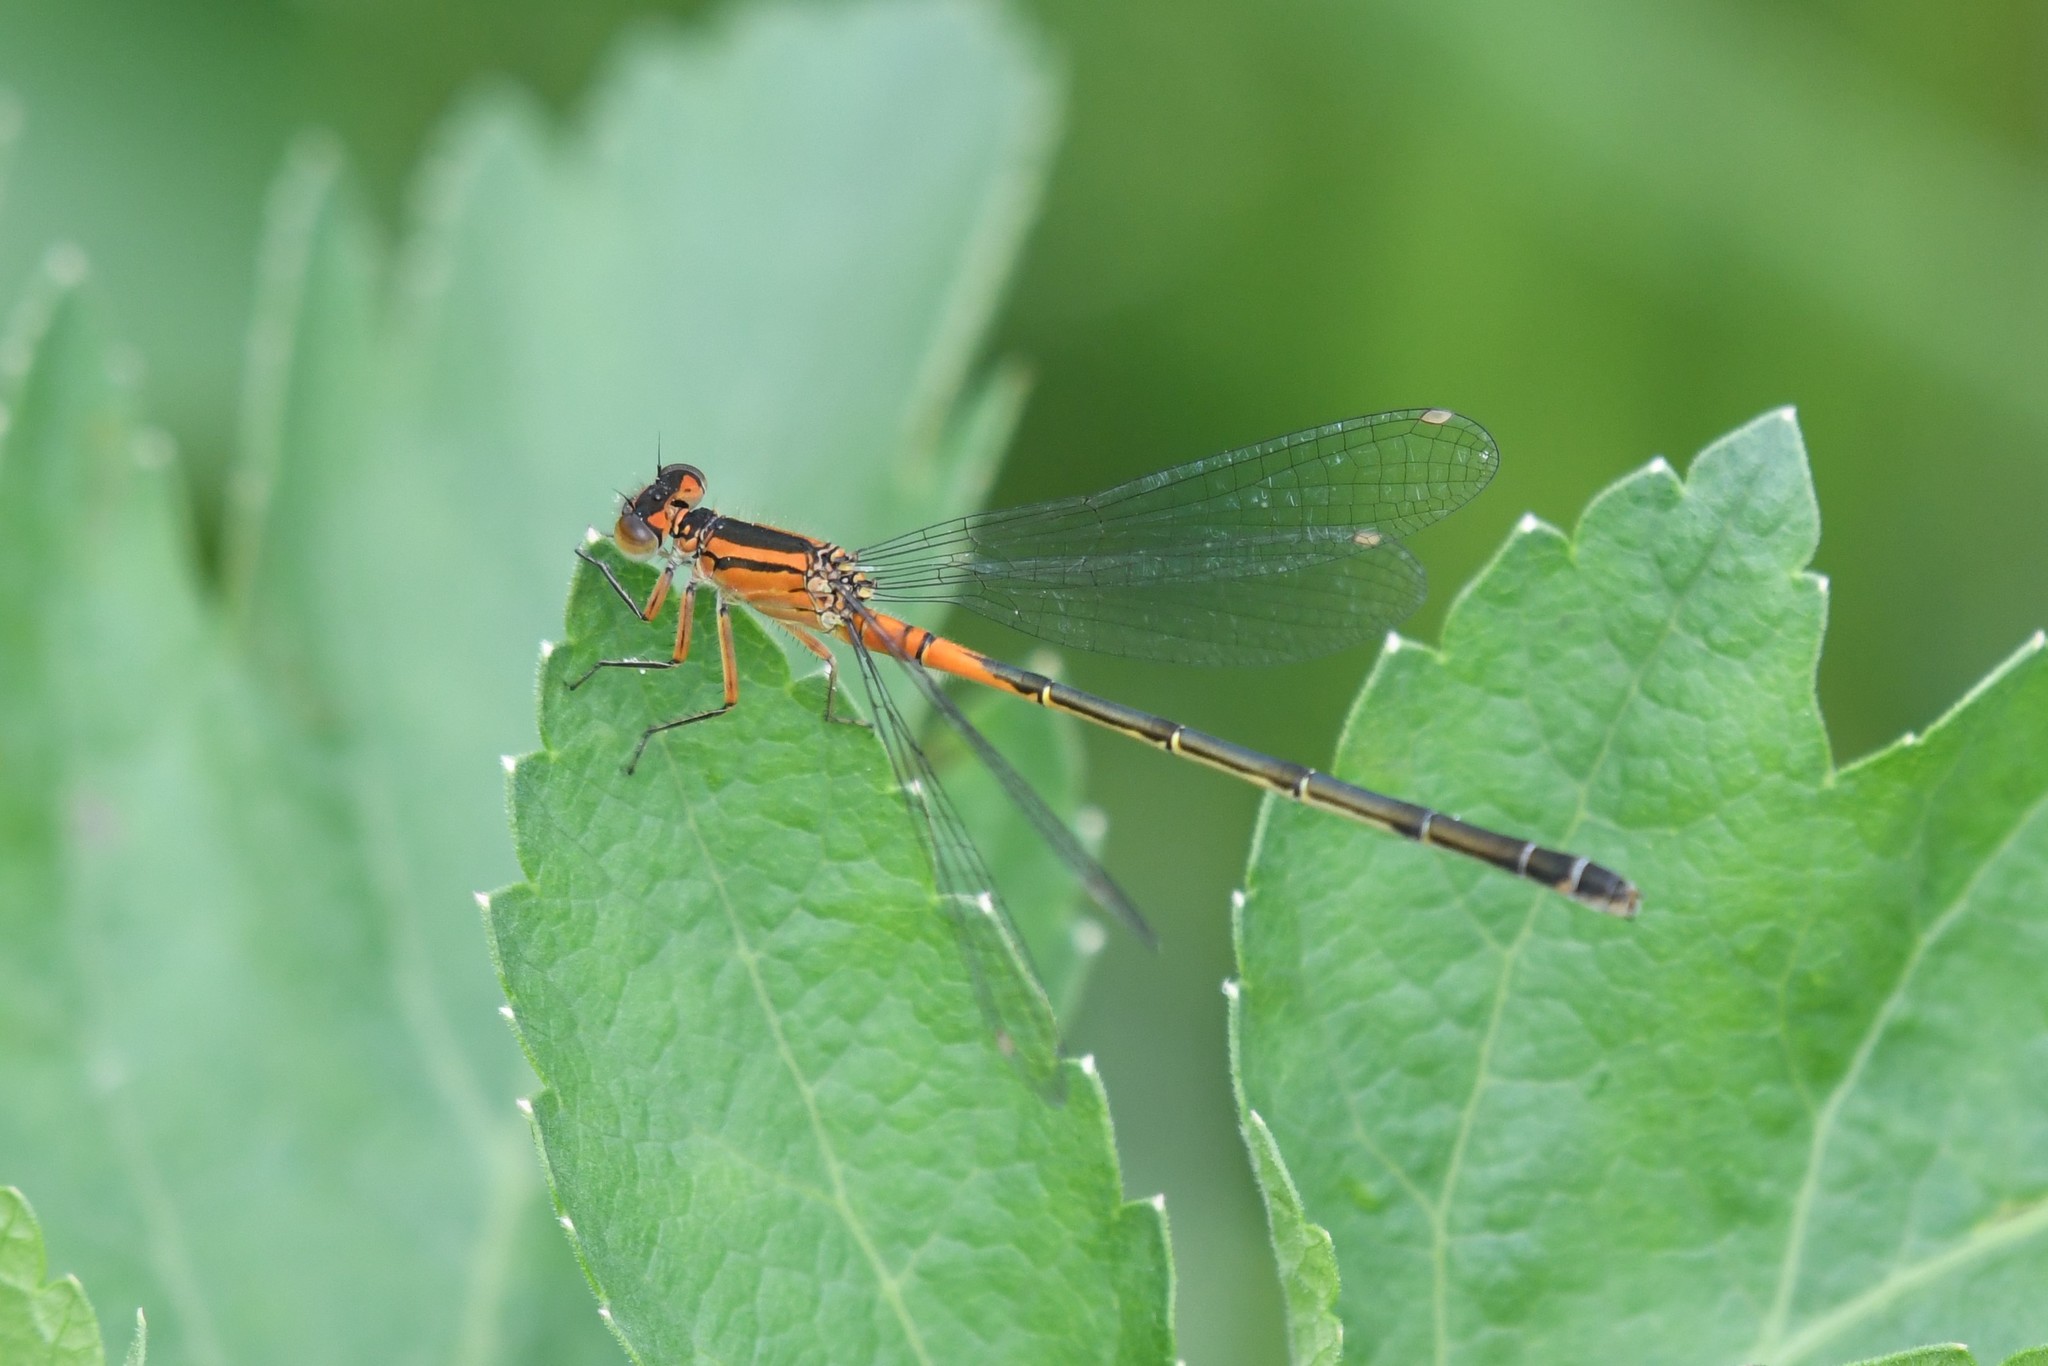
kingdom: Animalia
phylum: Arthropoda
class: Insecta
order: Odonata
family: Coenagrionidae
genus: Ischnura
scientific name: Ischnura verticalis
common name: Eastern forktail
